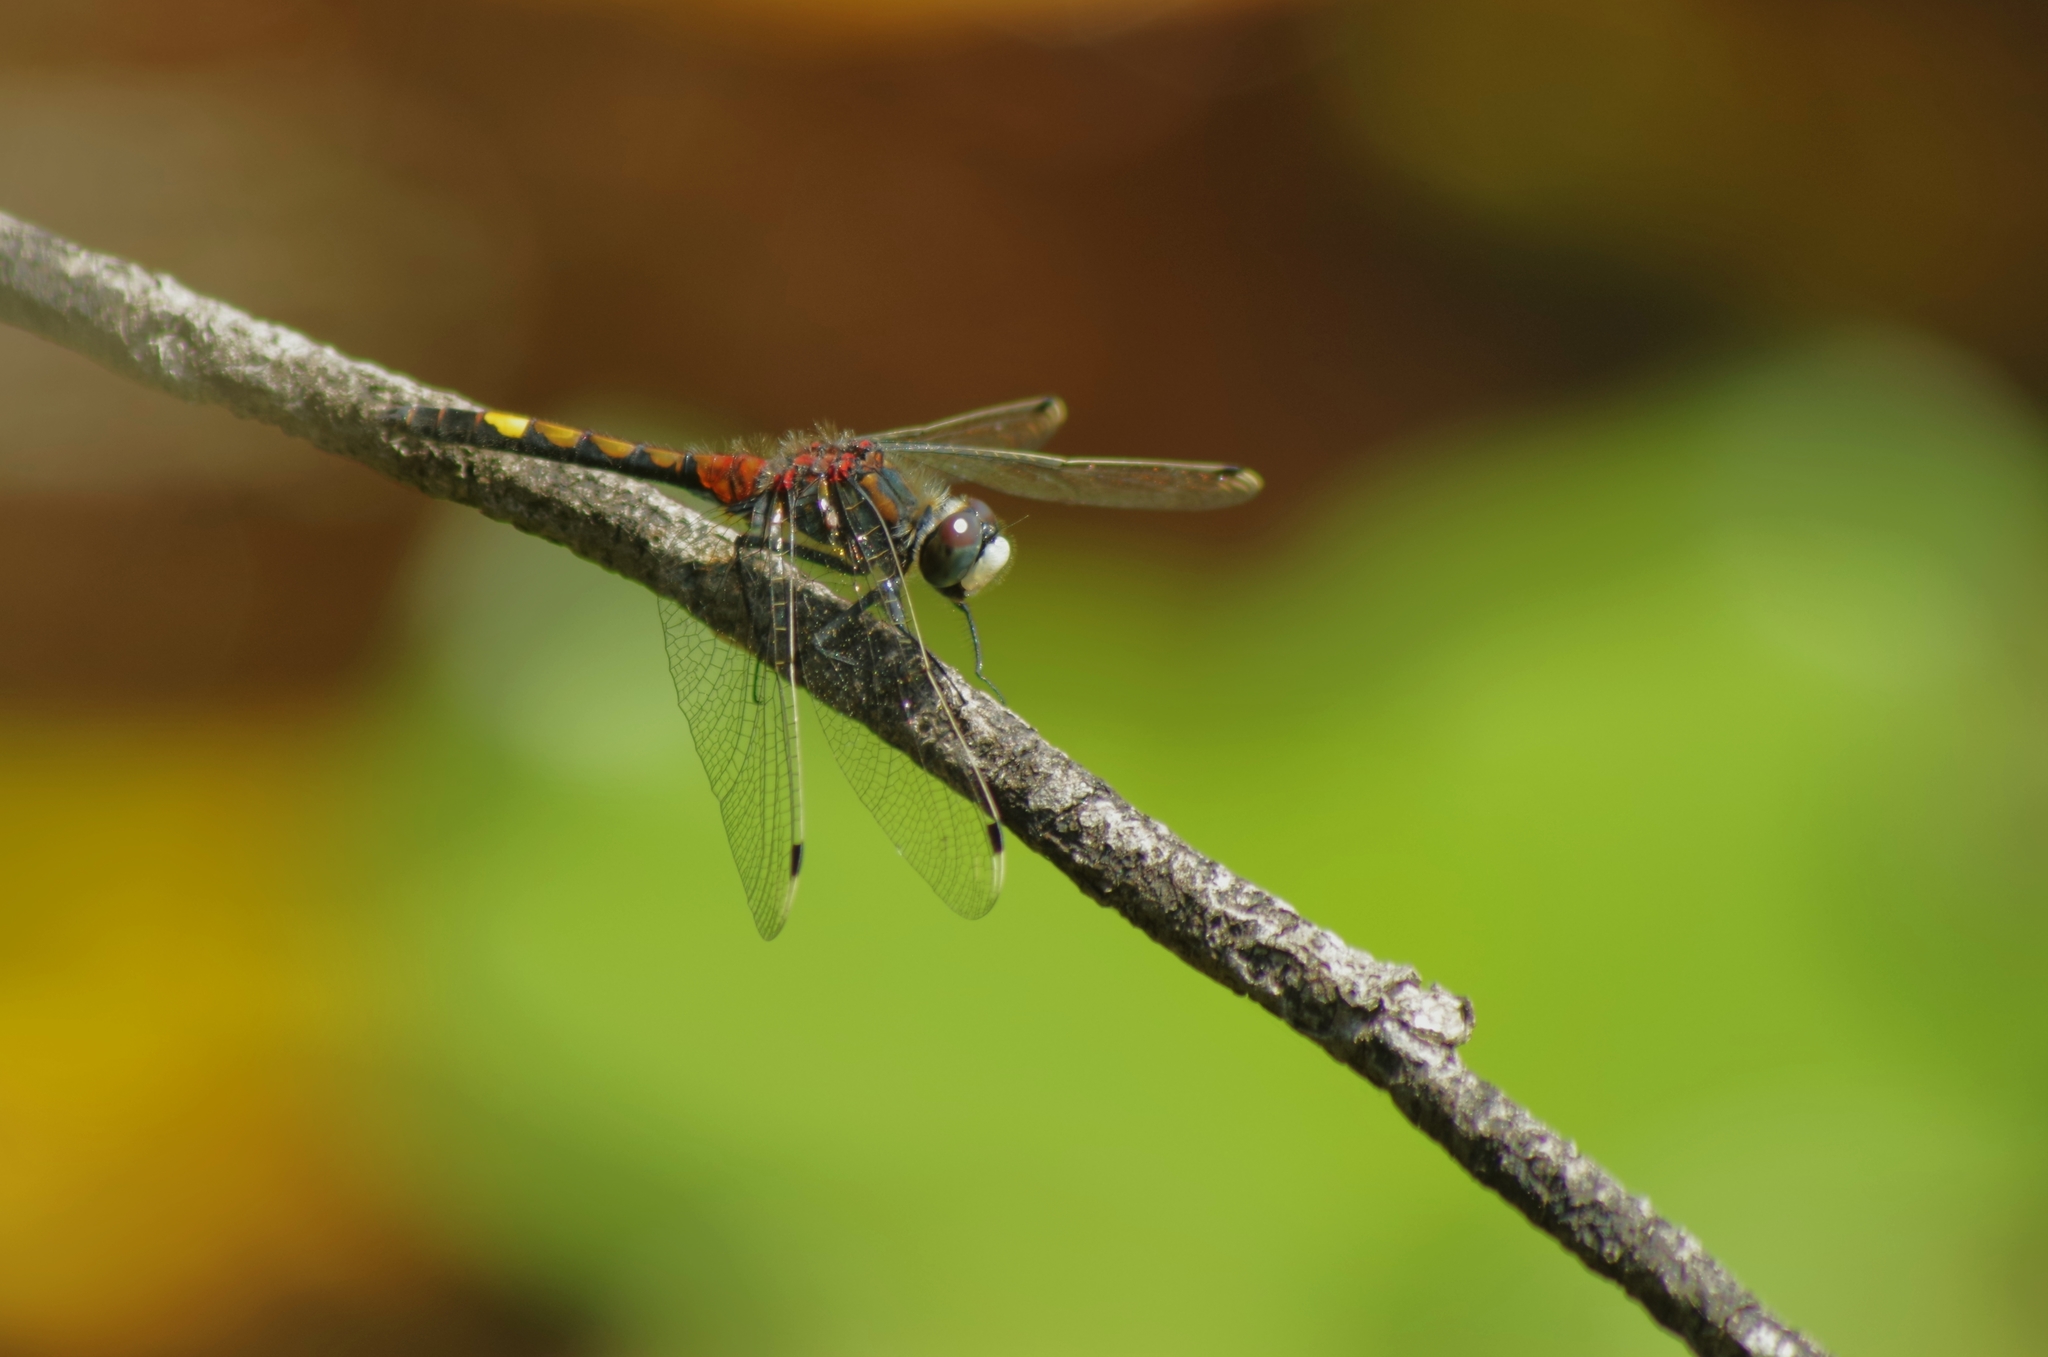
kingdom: Animalia
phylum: Arthropoda
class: Insecta
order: Odonata
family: Libellulidae
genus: Leucorrhinia
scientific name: Leucorrhinia pectoralis
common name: Yellow-spotted whiteface
